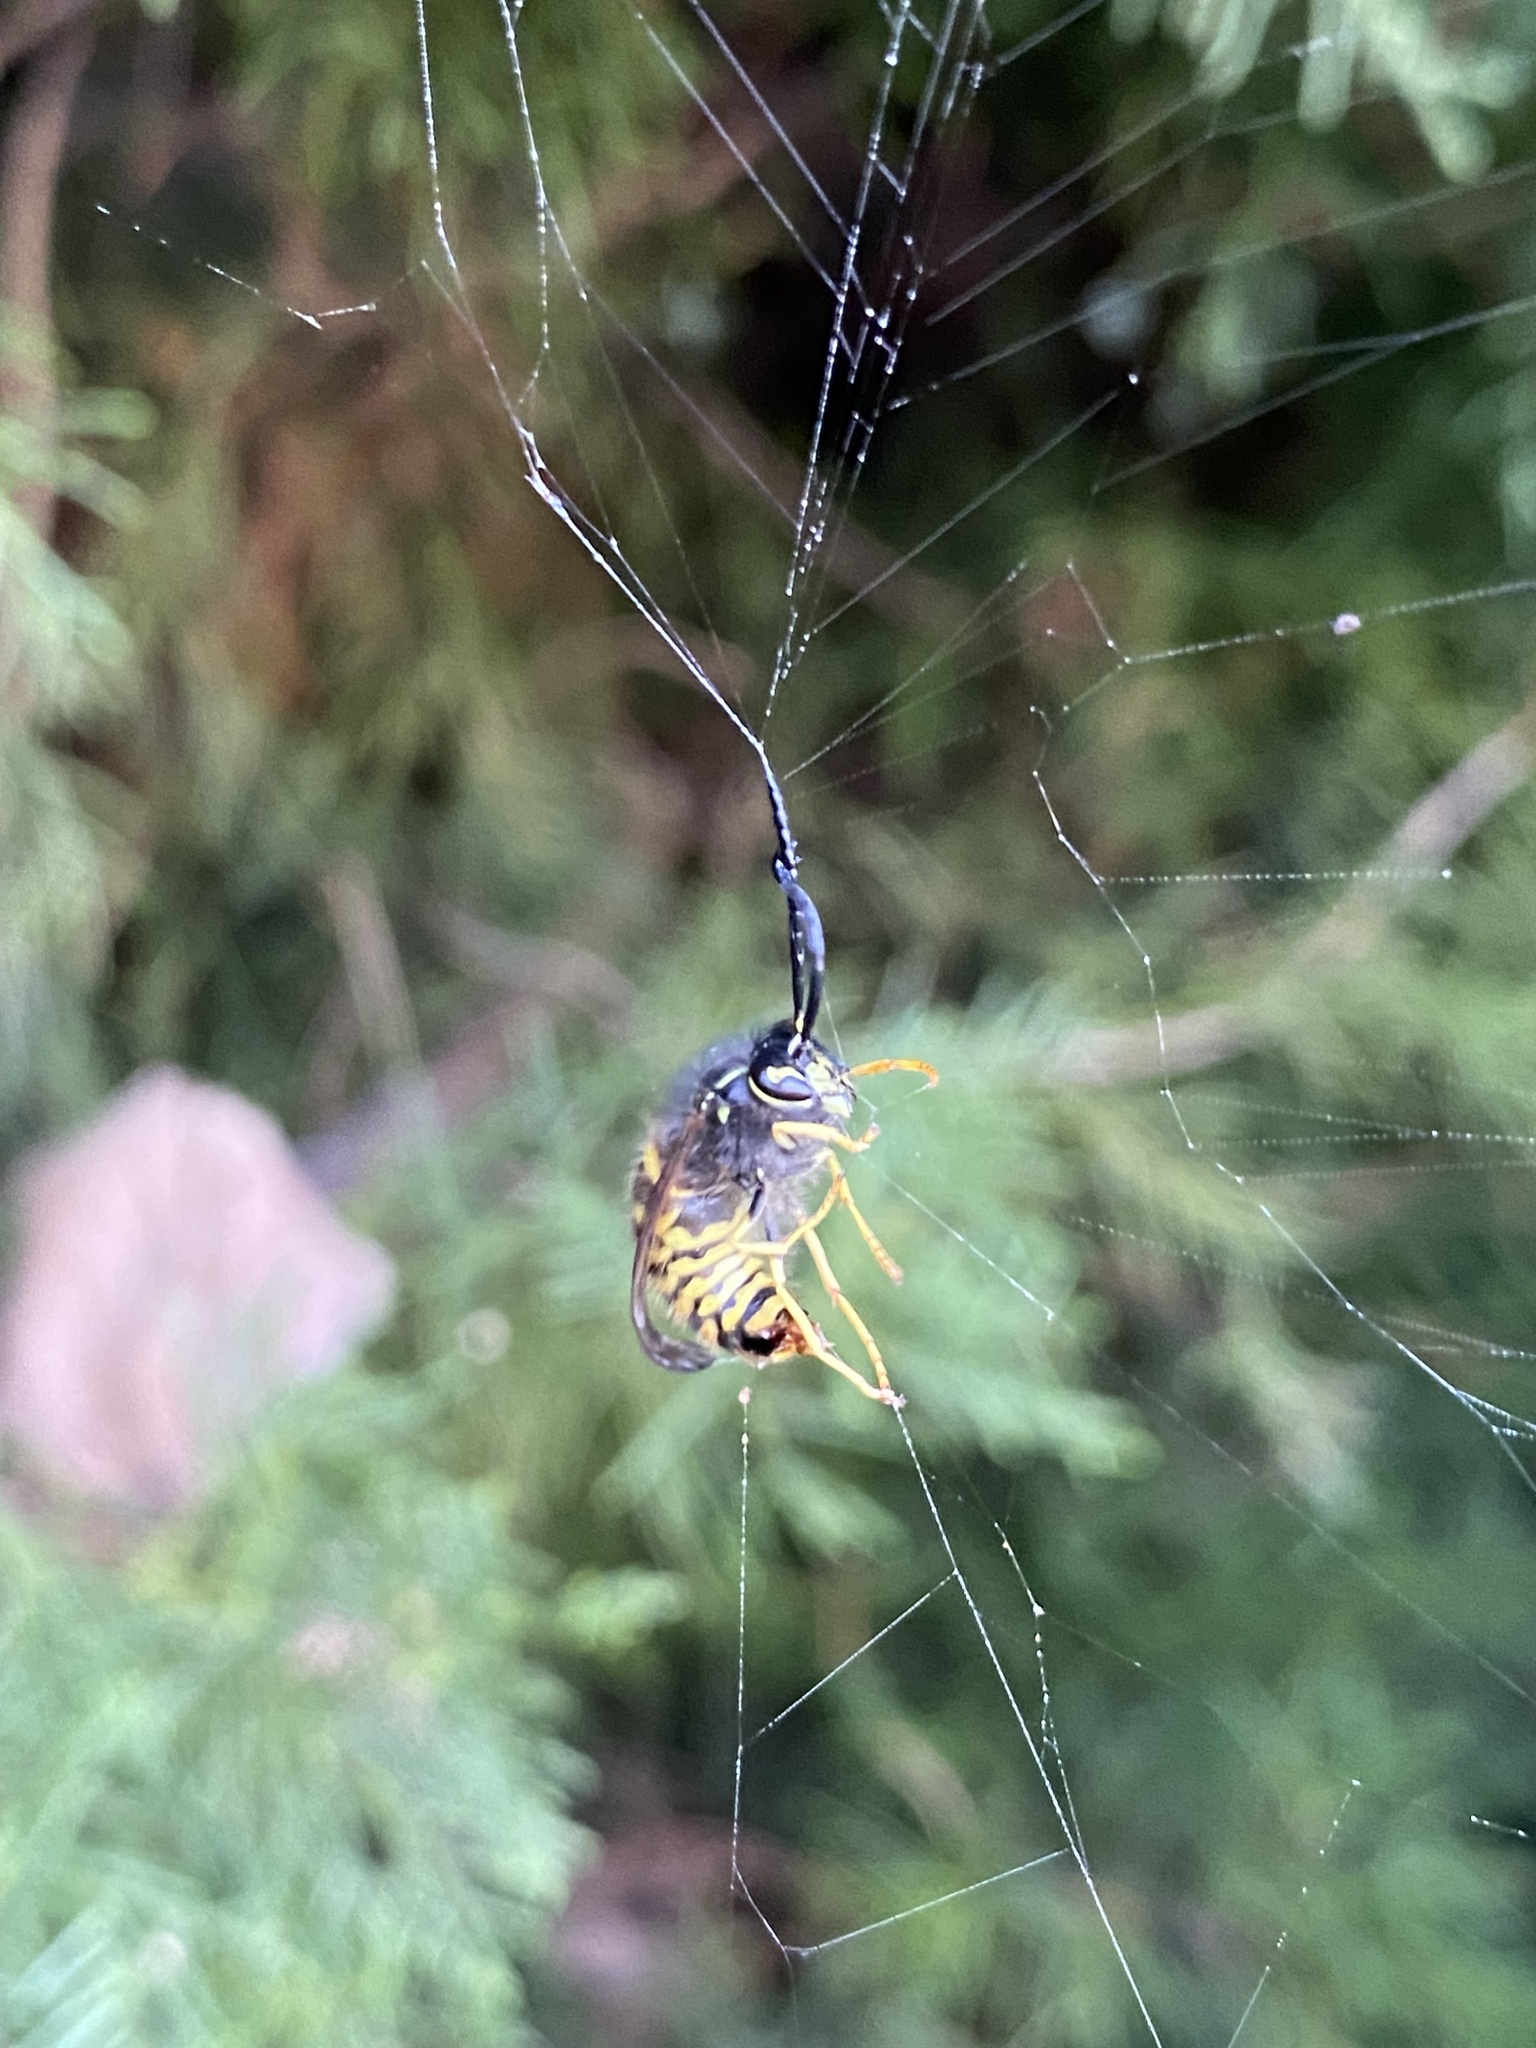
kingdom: Animalia
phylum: Arthropoda
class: Insecta
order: Hymenoptera
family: Vespidae
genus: Vespula
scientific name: Vespula vulgaris
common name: Common wasp
